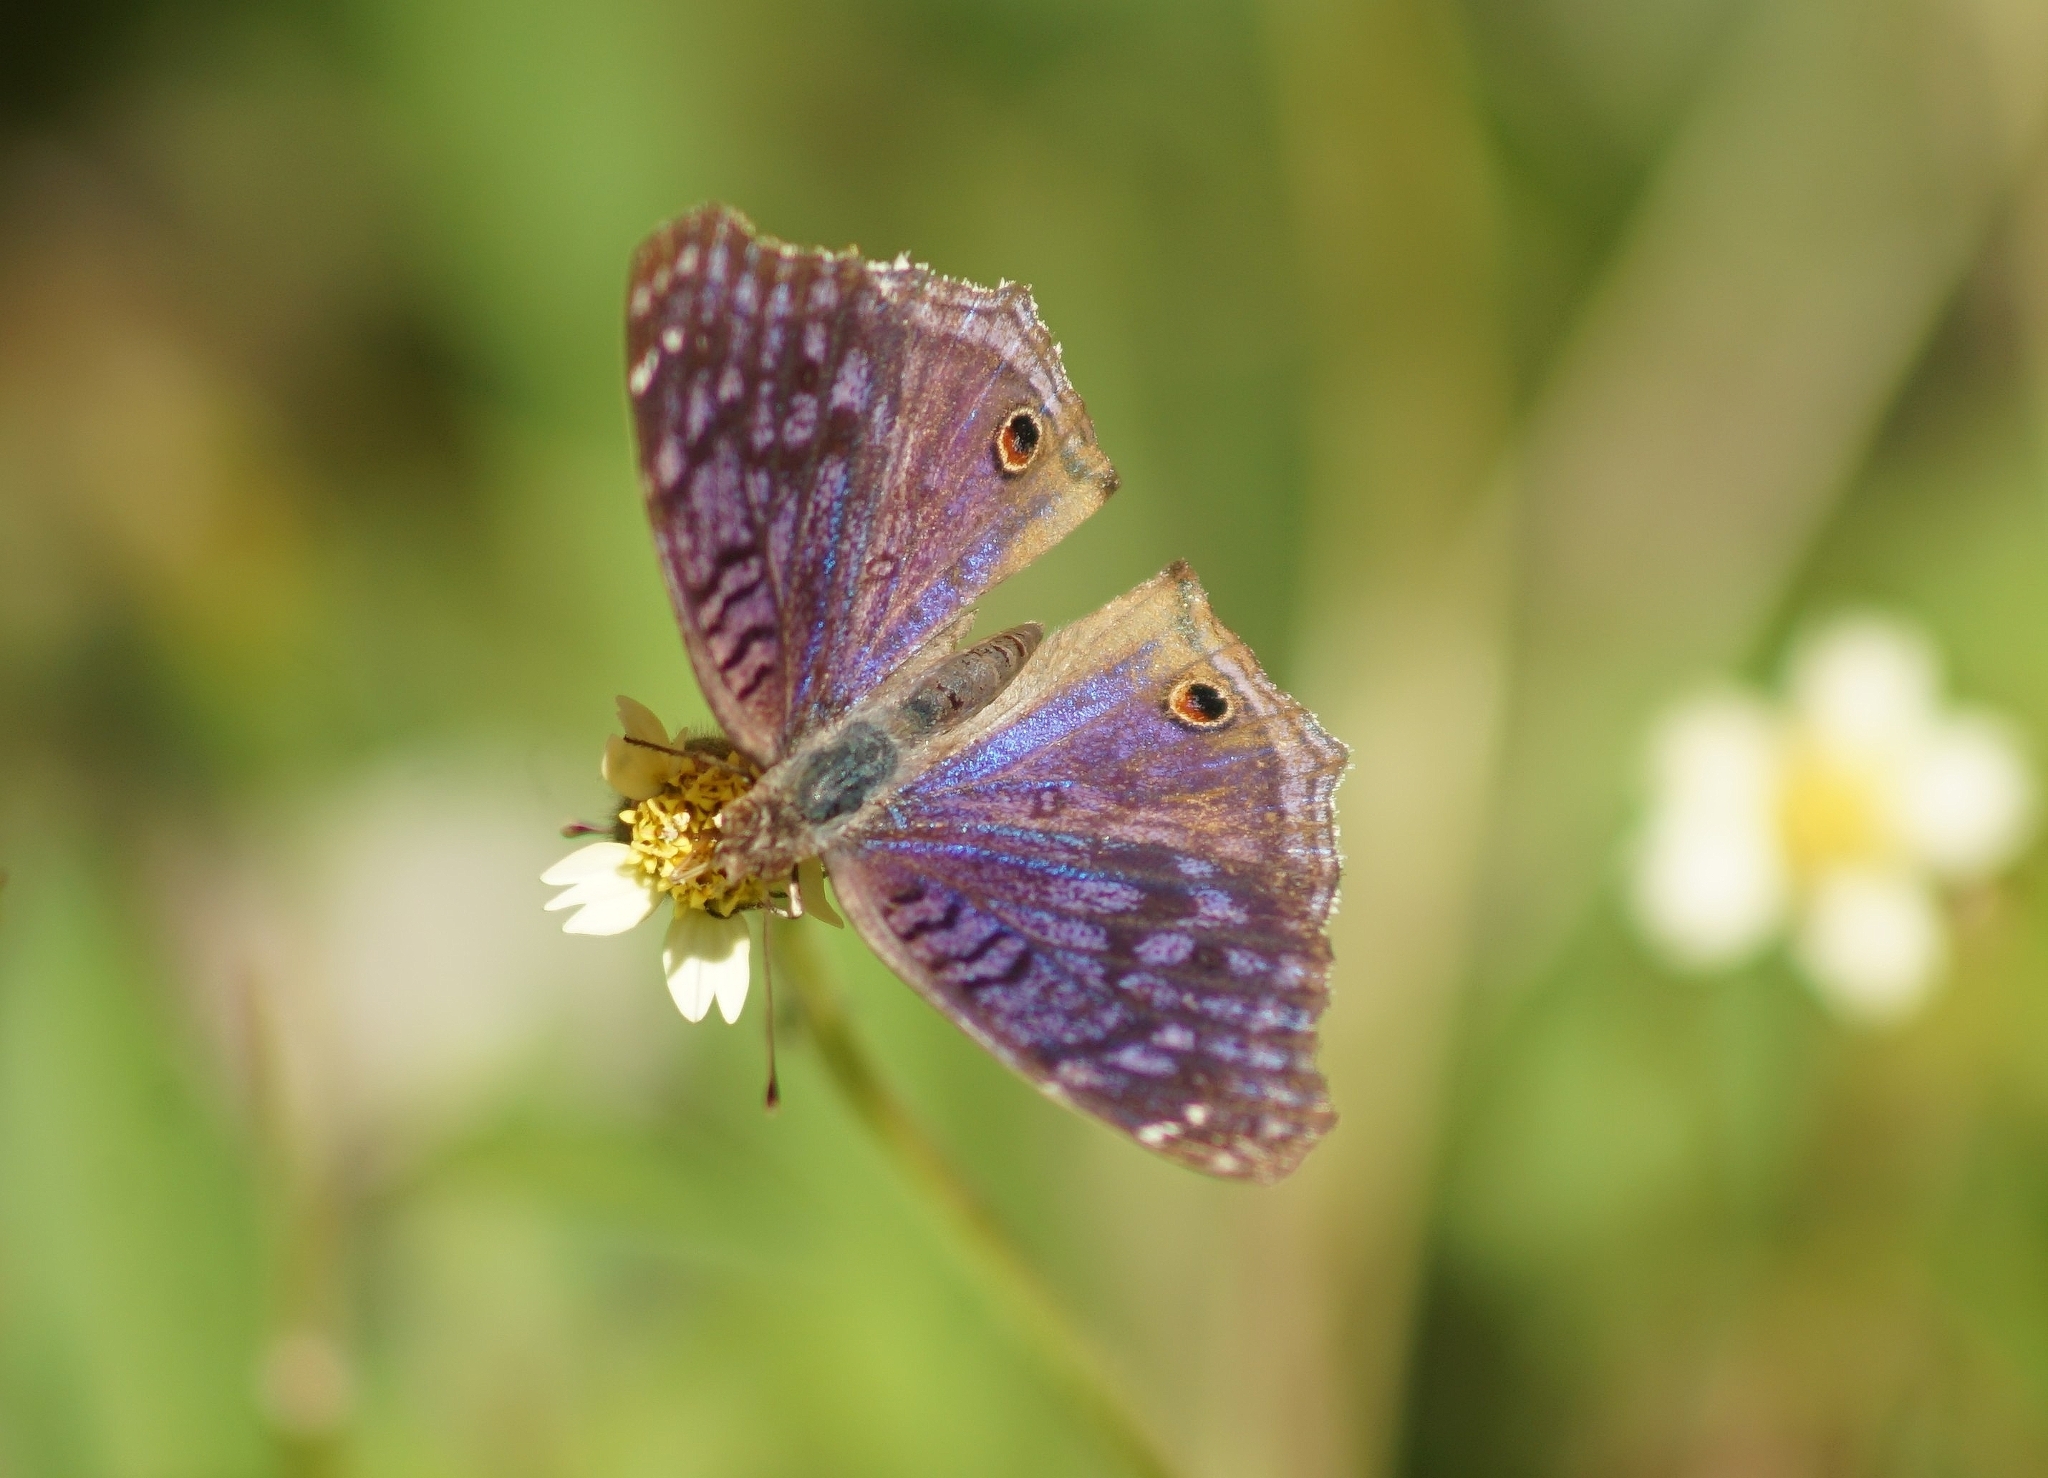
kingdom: Animalia
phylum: Arthropoda
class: Insecta
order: Lepidoptera
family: Nymphalidae
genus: Junonia
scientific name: Junonia rhadama
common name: Royal blue pansy
